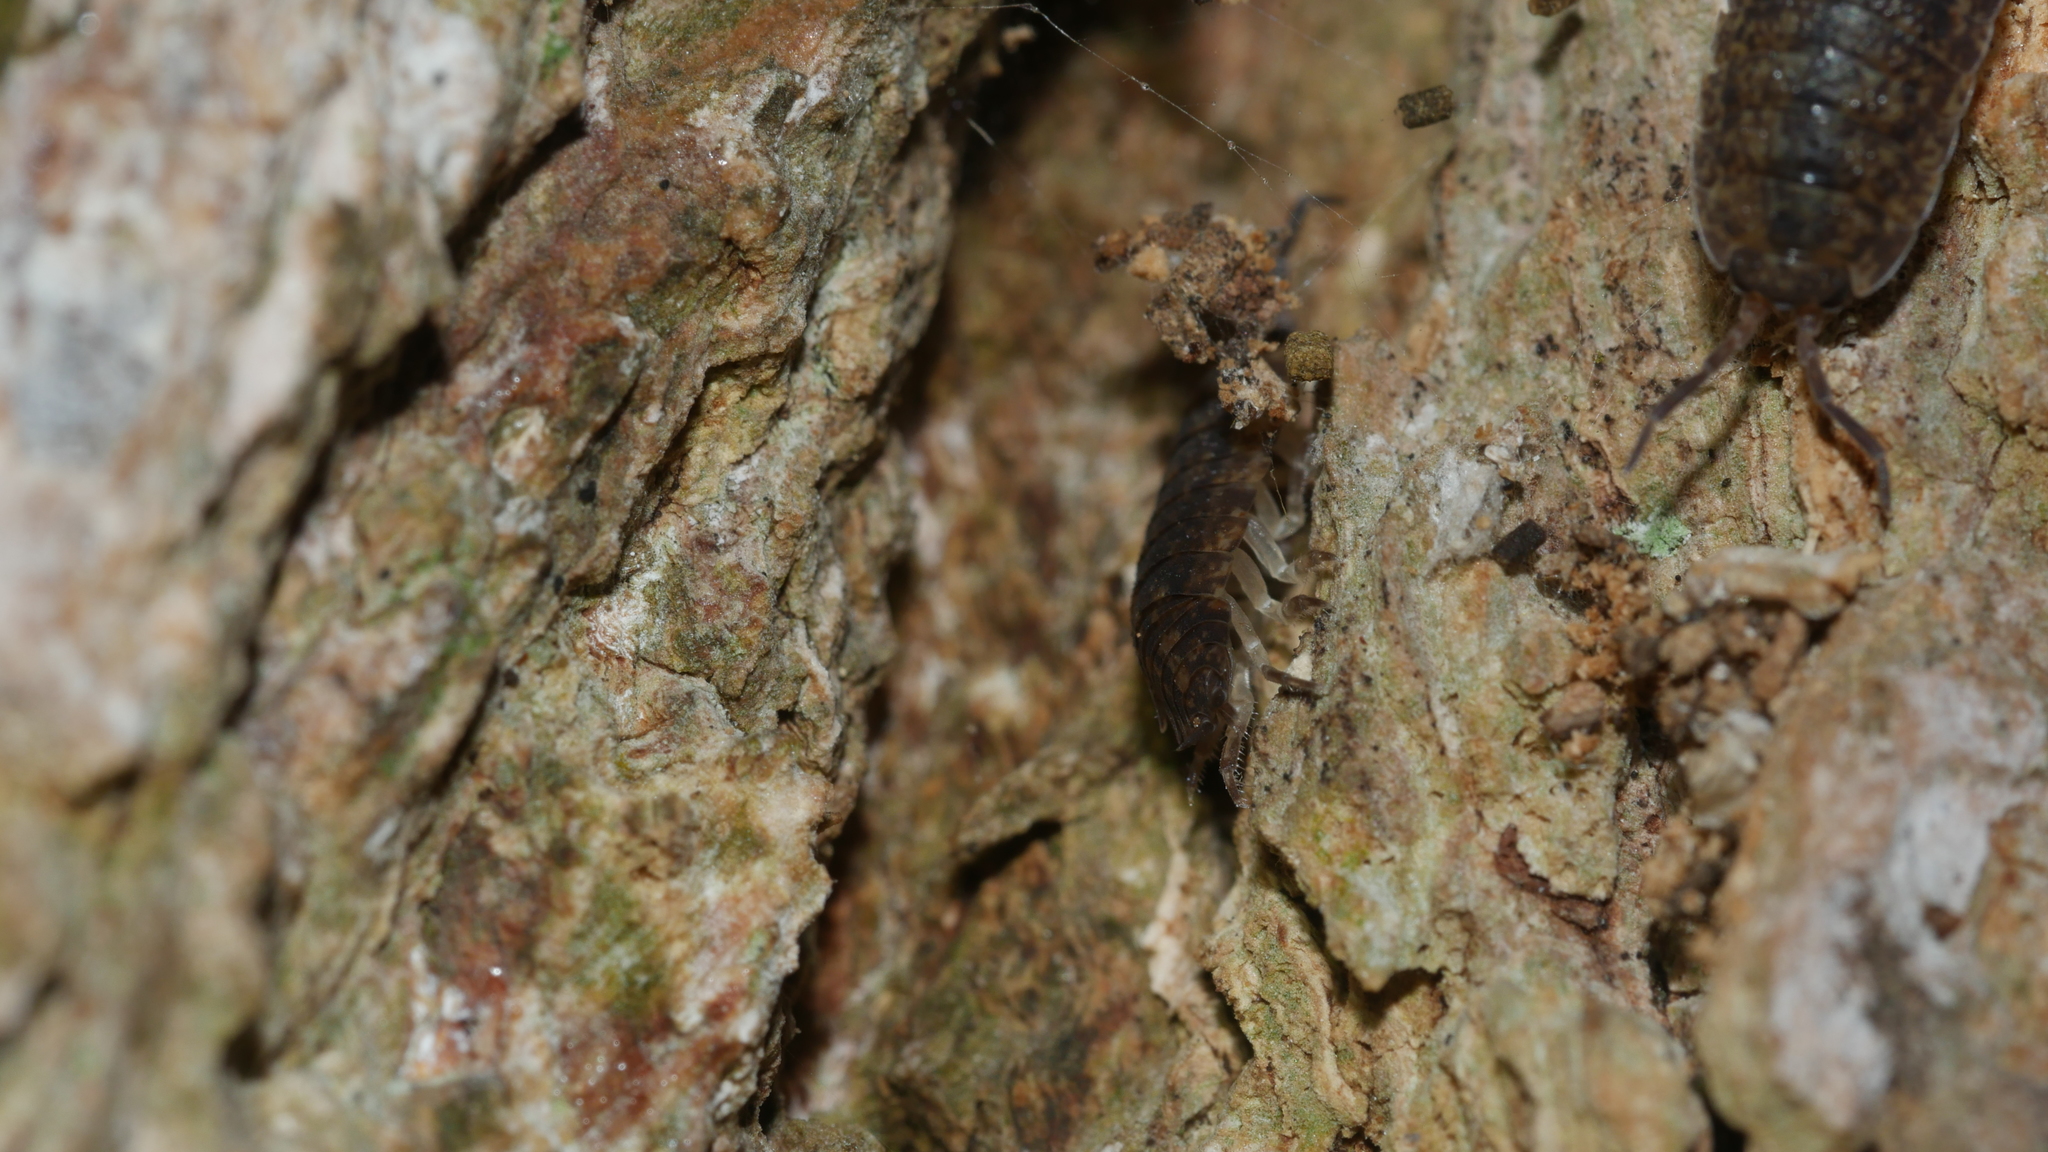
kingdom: Animalia
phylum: Arthropoda
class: Malacostraca
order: Isopoda
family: Porcellionidae
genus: Porcellio
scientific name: Porcellio scaber
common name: Common rough woodlouse
